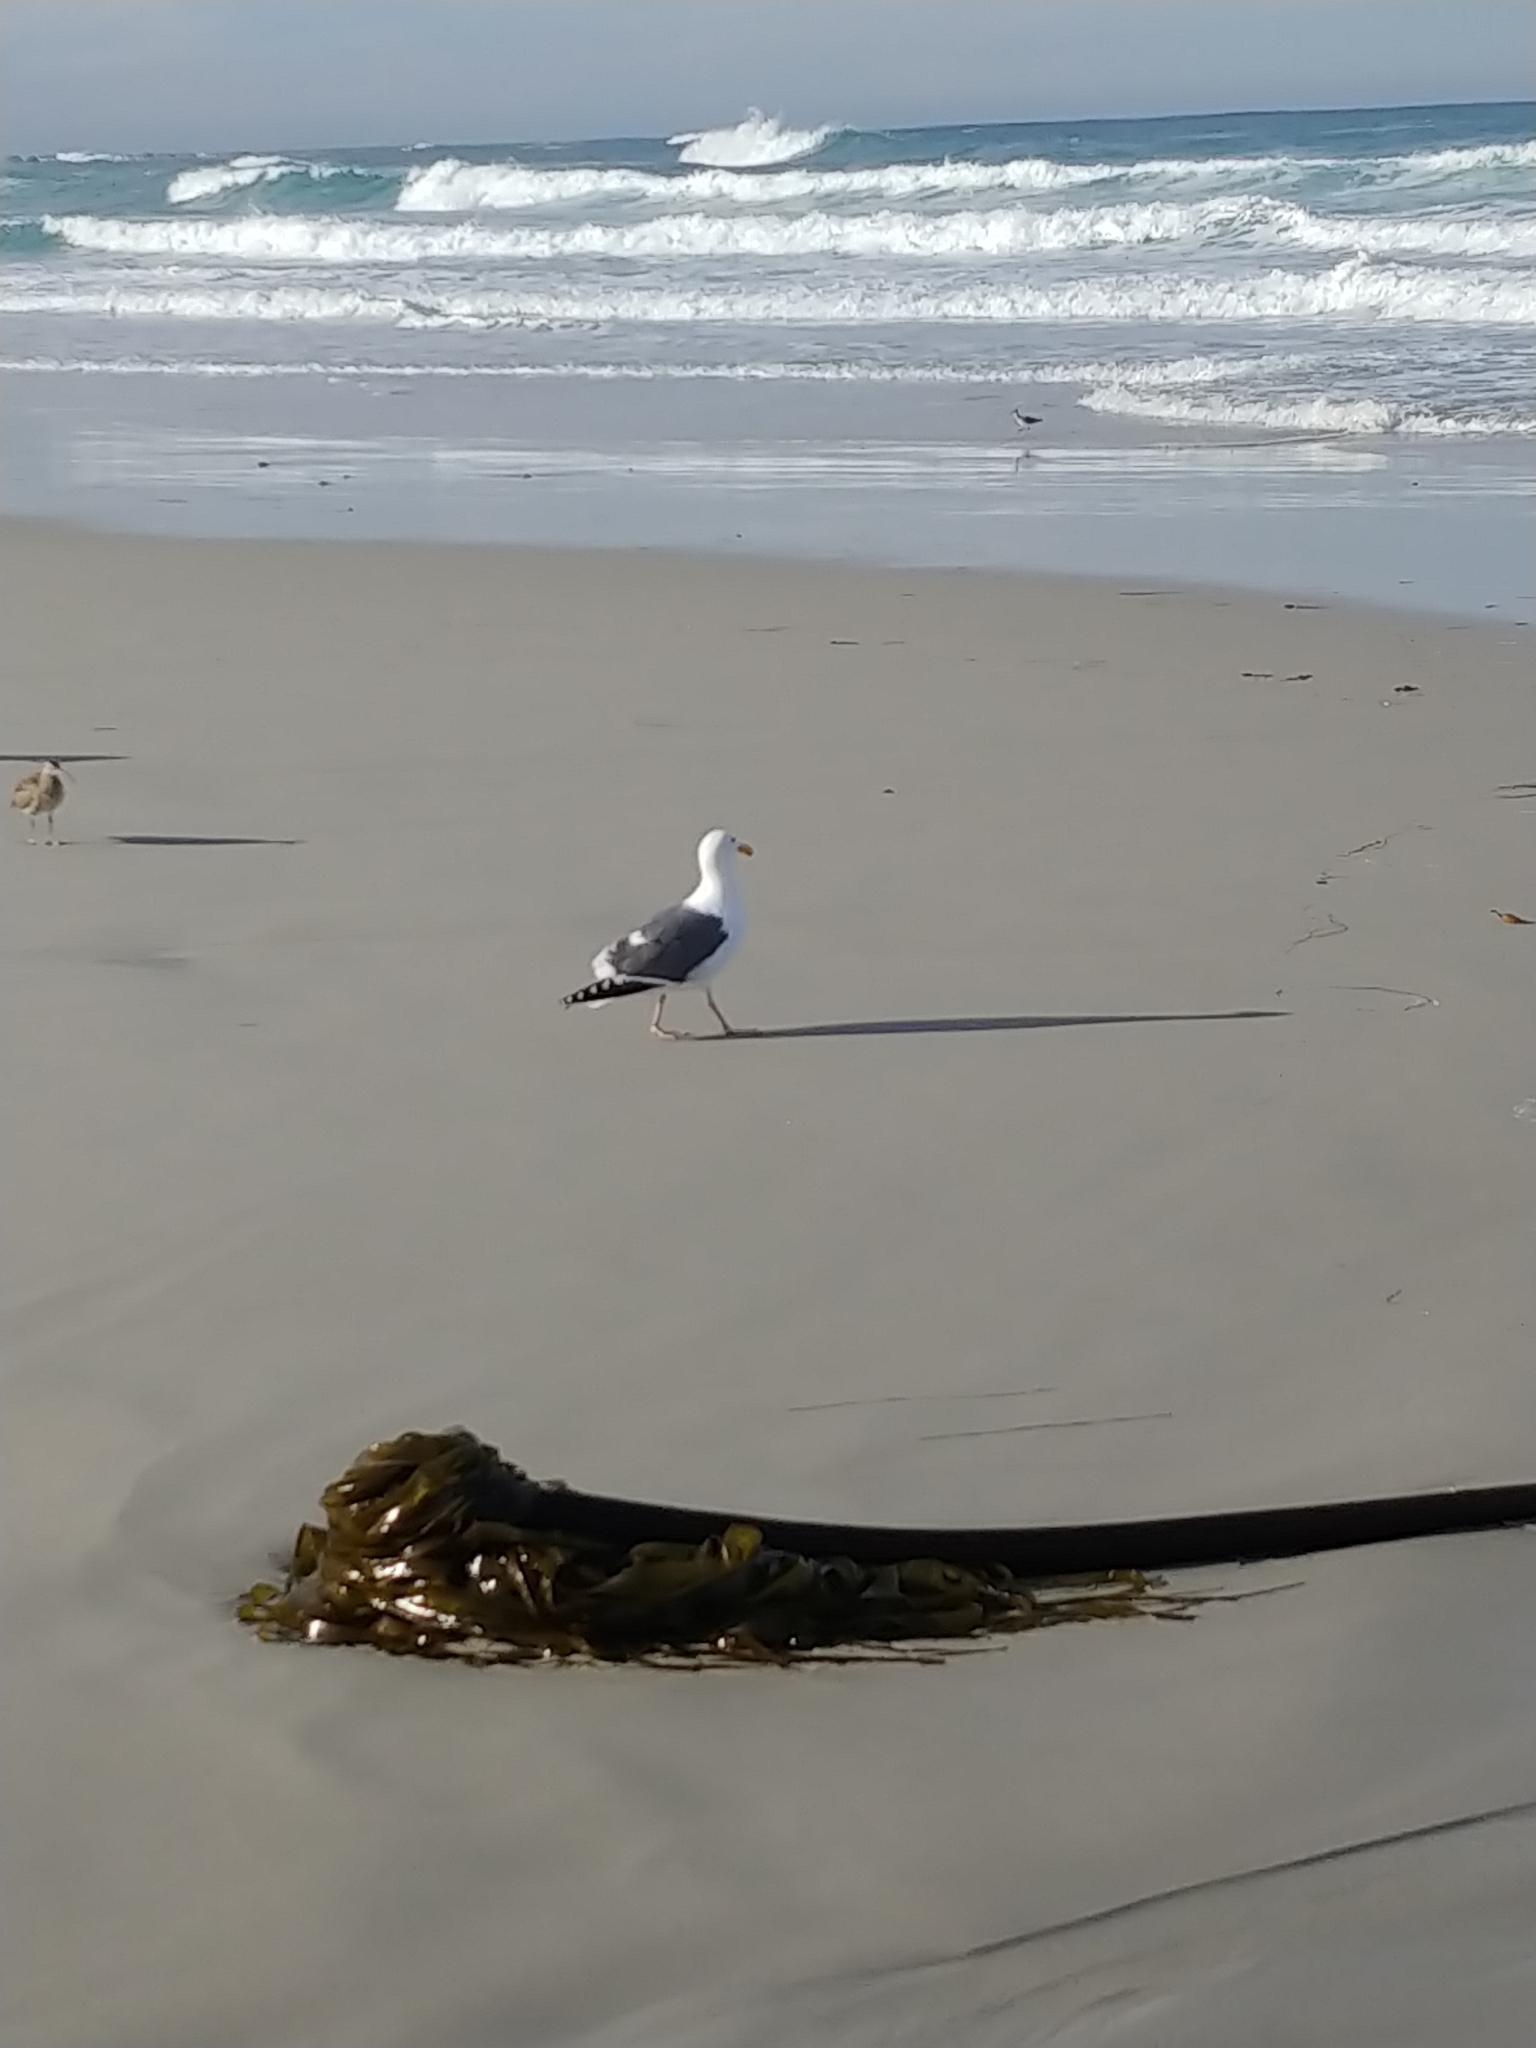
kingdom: Animalia
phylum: Chordata
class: Aves
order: Charadriiformes
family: Laridae
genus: Larus
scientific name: Larus occidentalis
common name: Western gull
